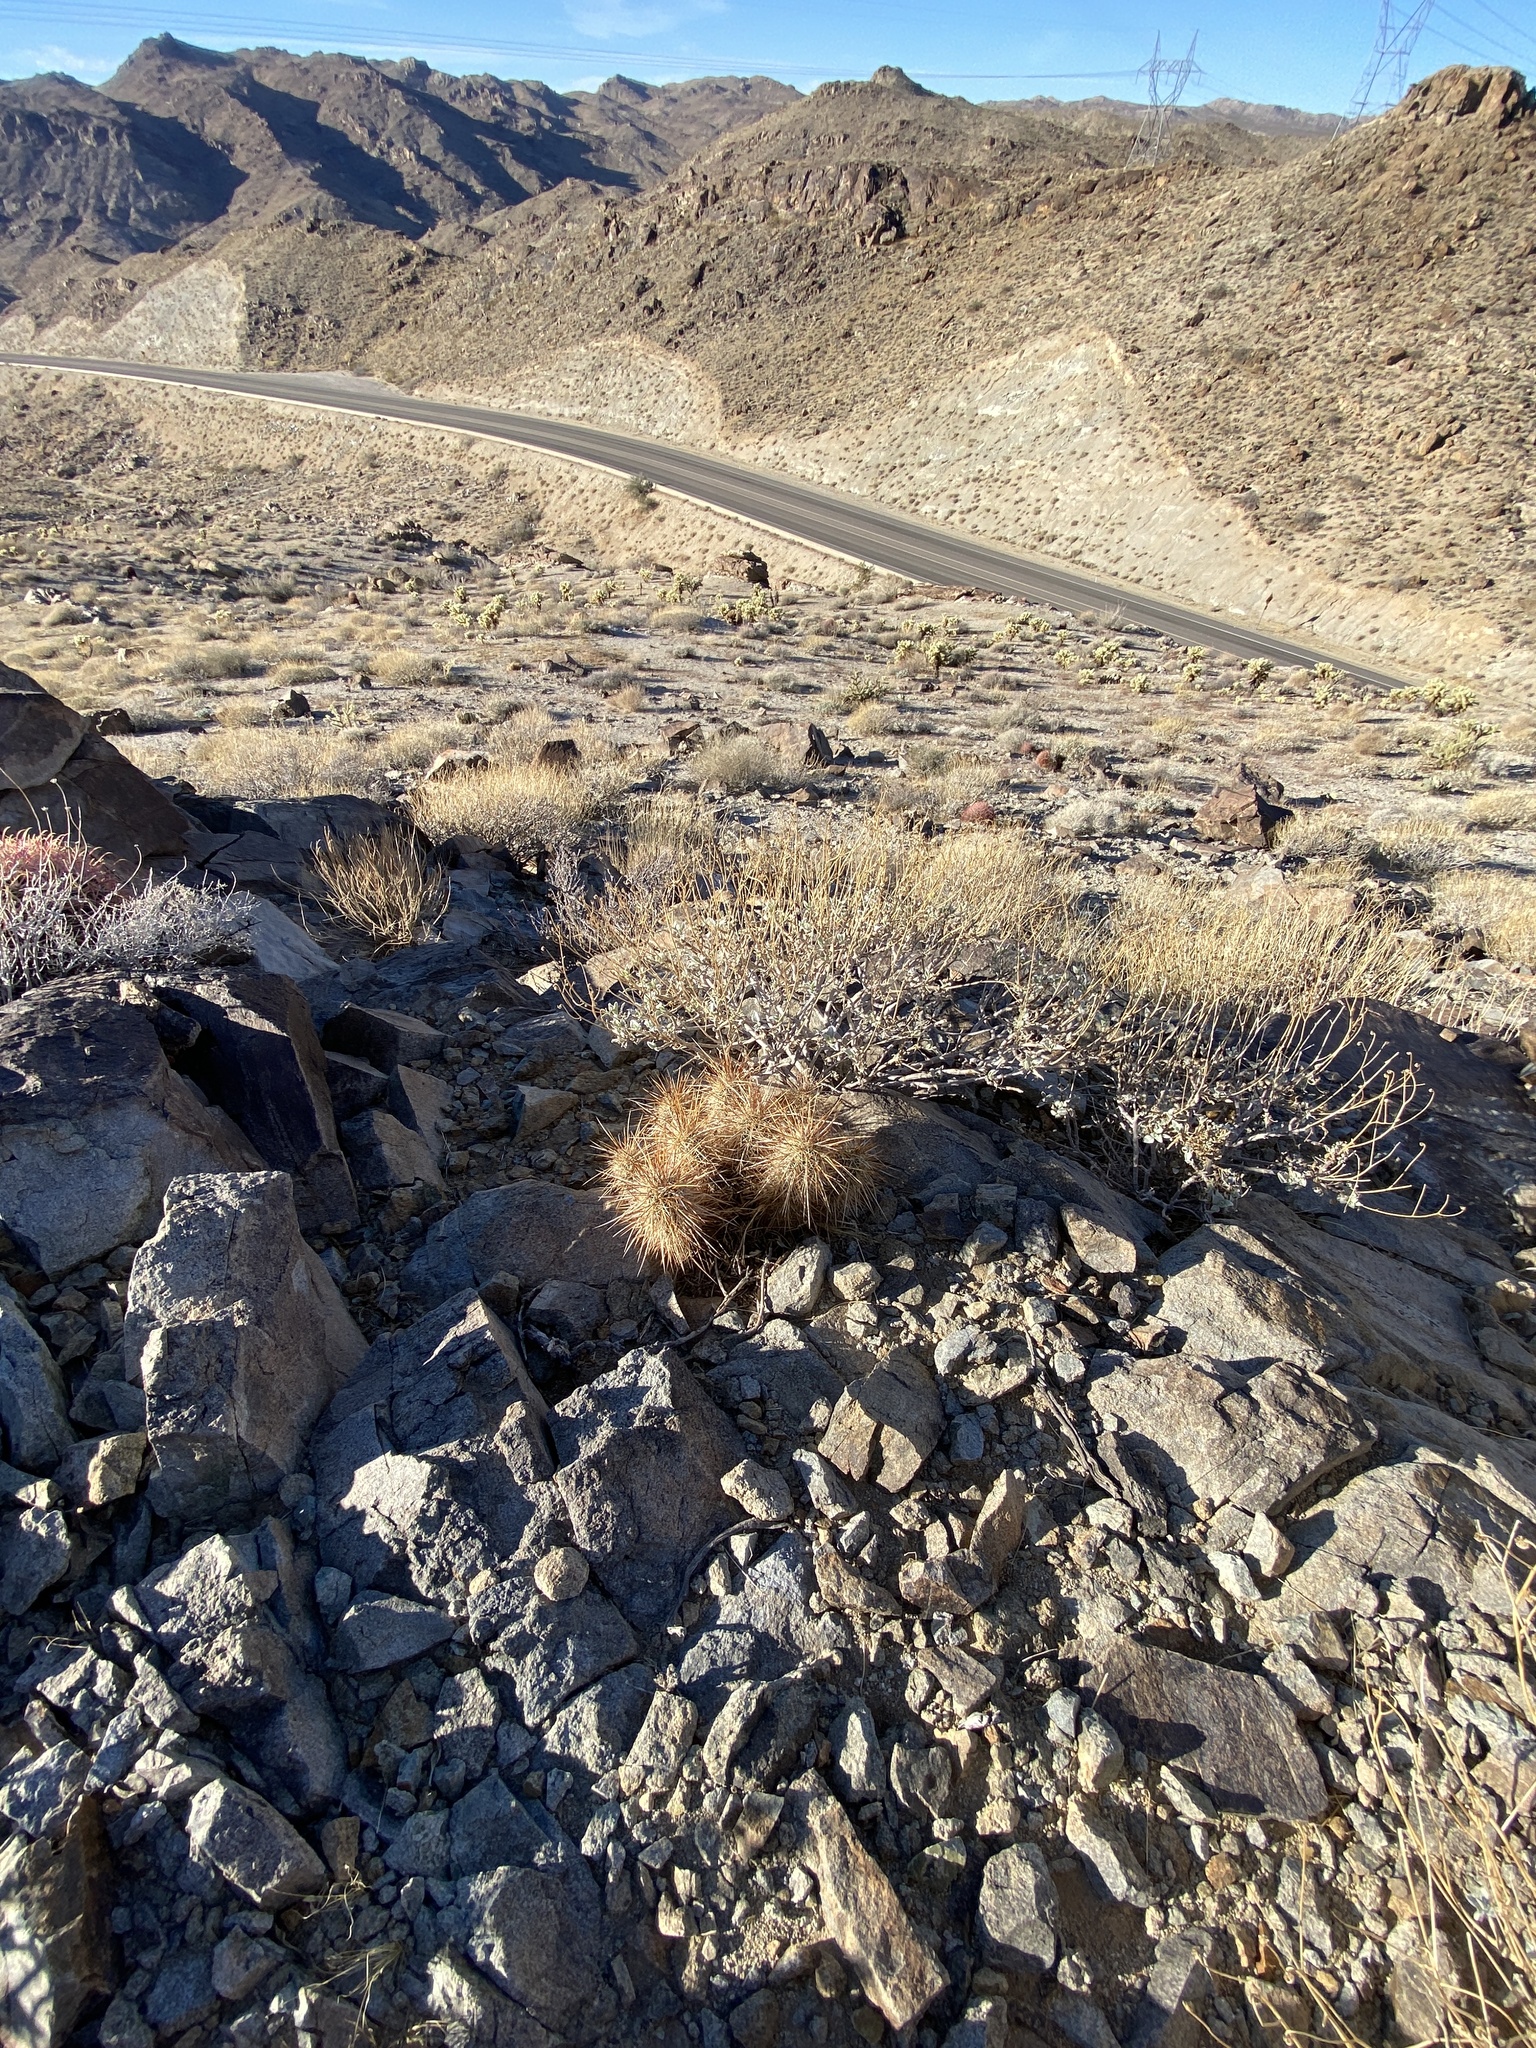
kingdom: Plantae
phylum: Tracheophyta
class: Magnoliopsida
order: Caryophyllales
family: Cactaceae
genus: Echinocereus
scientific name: Echinocereus engelmannii
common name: Engelmann's hedgehog cactus
